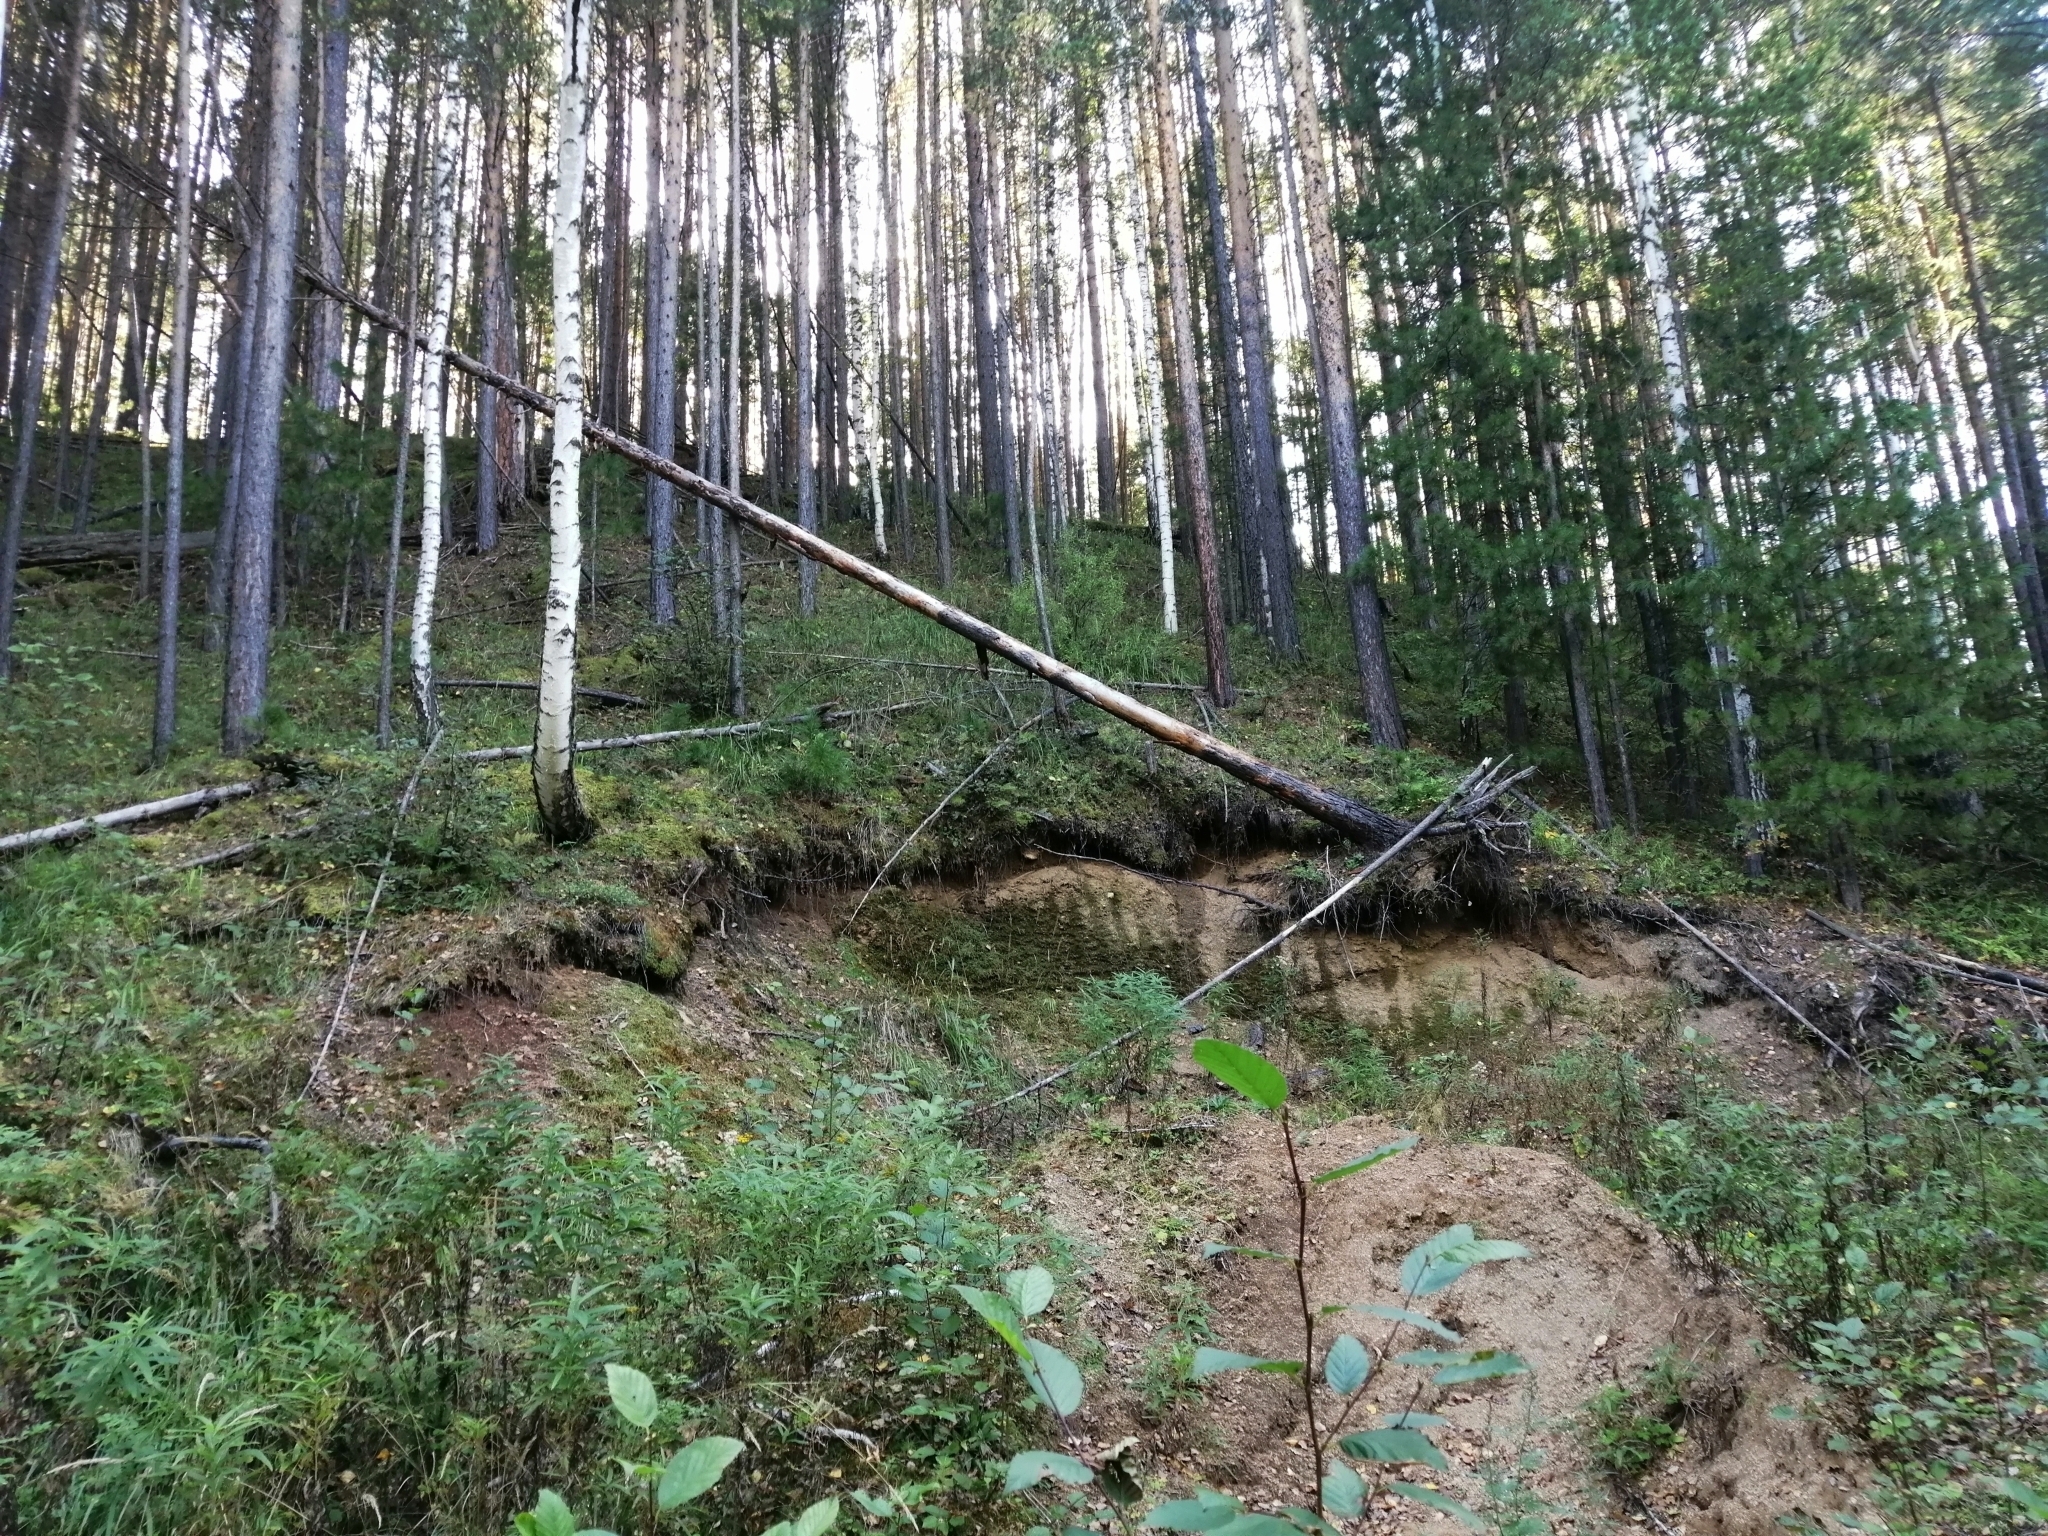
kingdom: Plantae
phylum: Tracheophyta
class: Pinopsida
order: Pinales
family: Pinaceae
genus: Pinus
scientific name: Pinus sibirica
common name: Siberian pine
